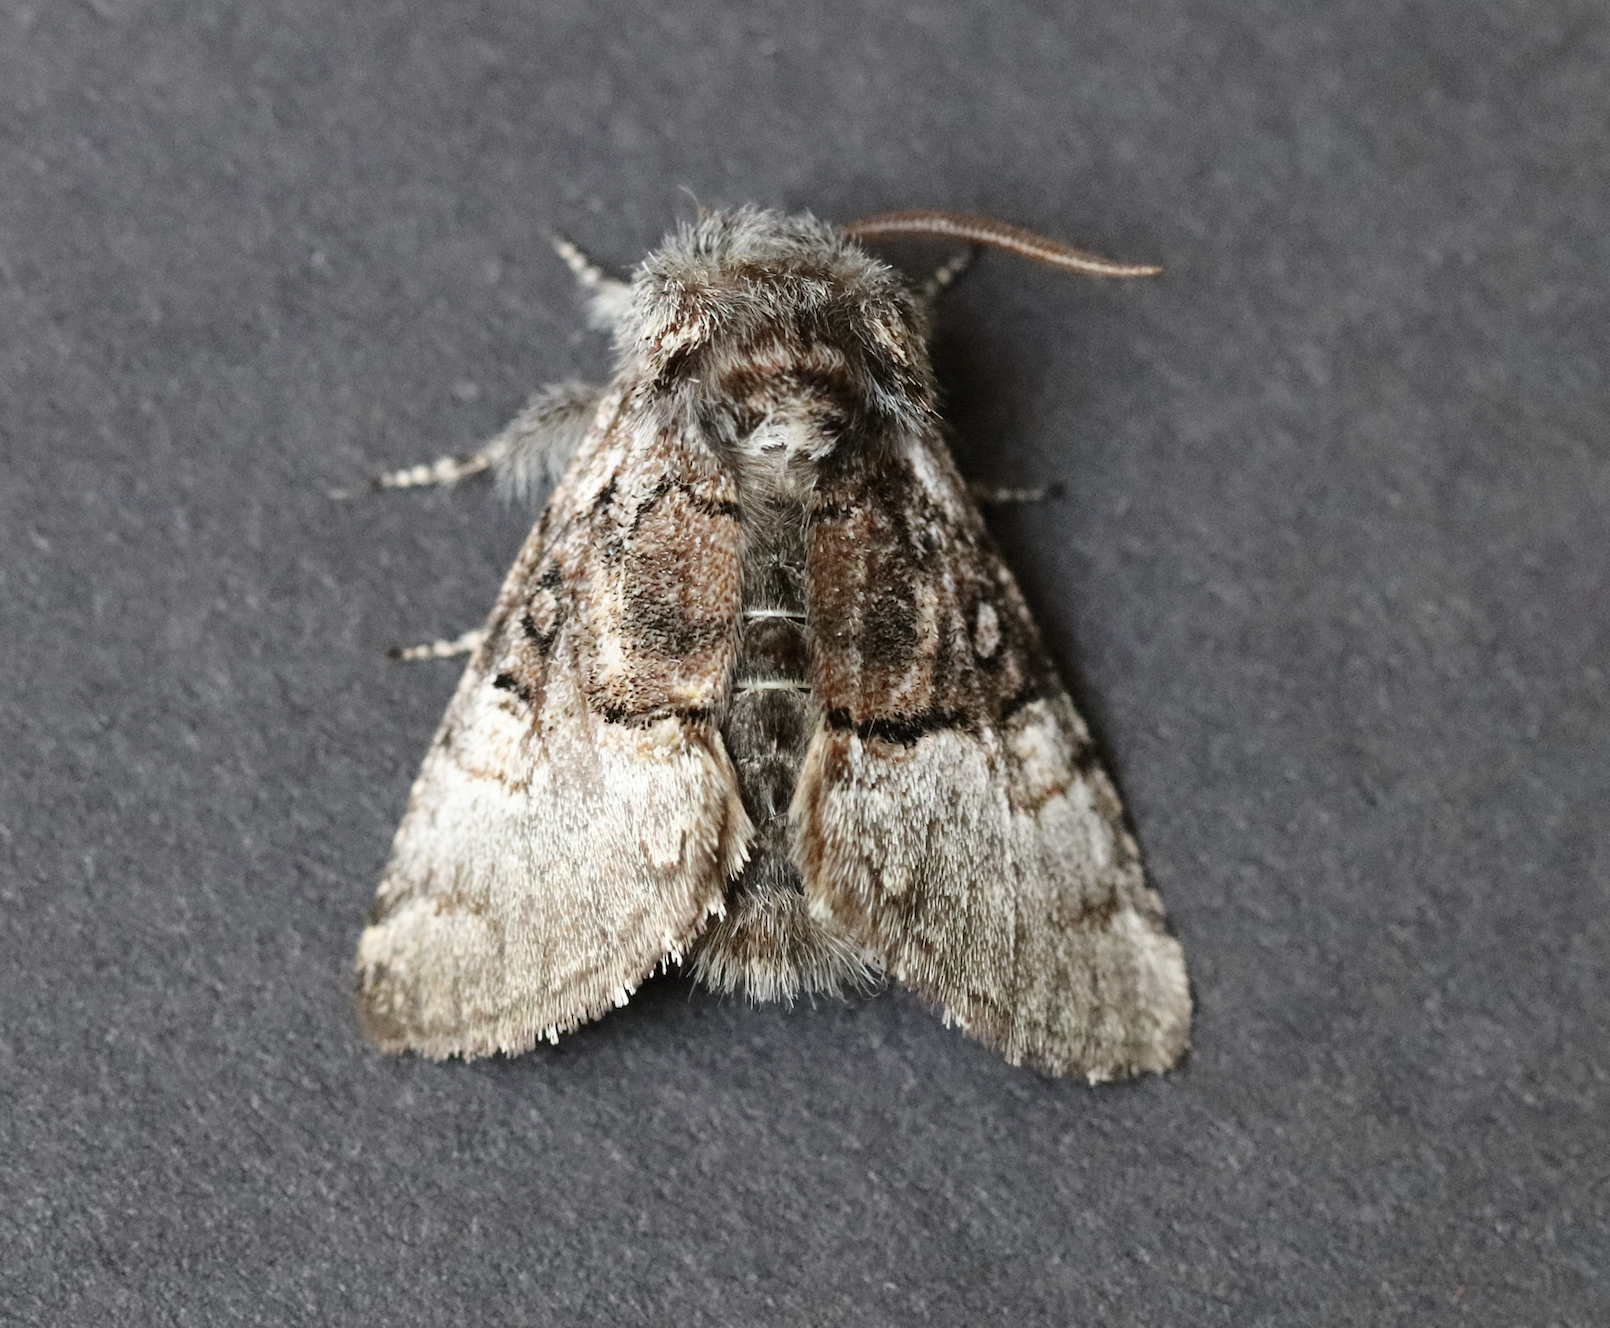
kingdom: Animalia
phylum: Arthropoda
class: Insecta
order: Lepidoptera
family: Noctuidae
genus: Colocasia
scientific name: Colocasia coryli
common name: Nut-tree tussock
